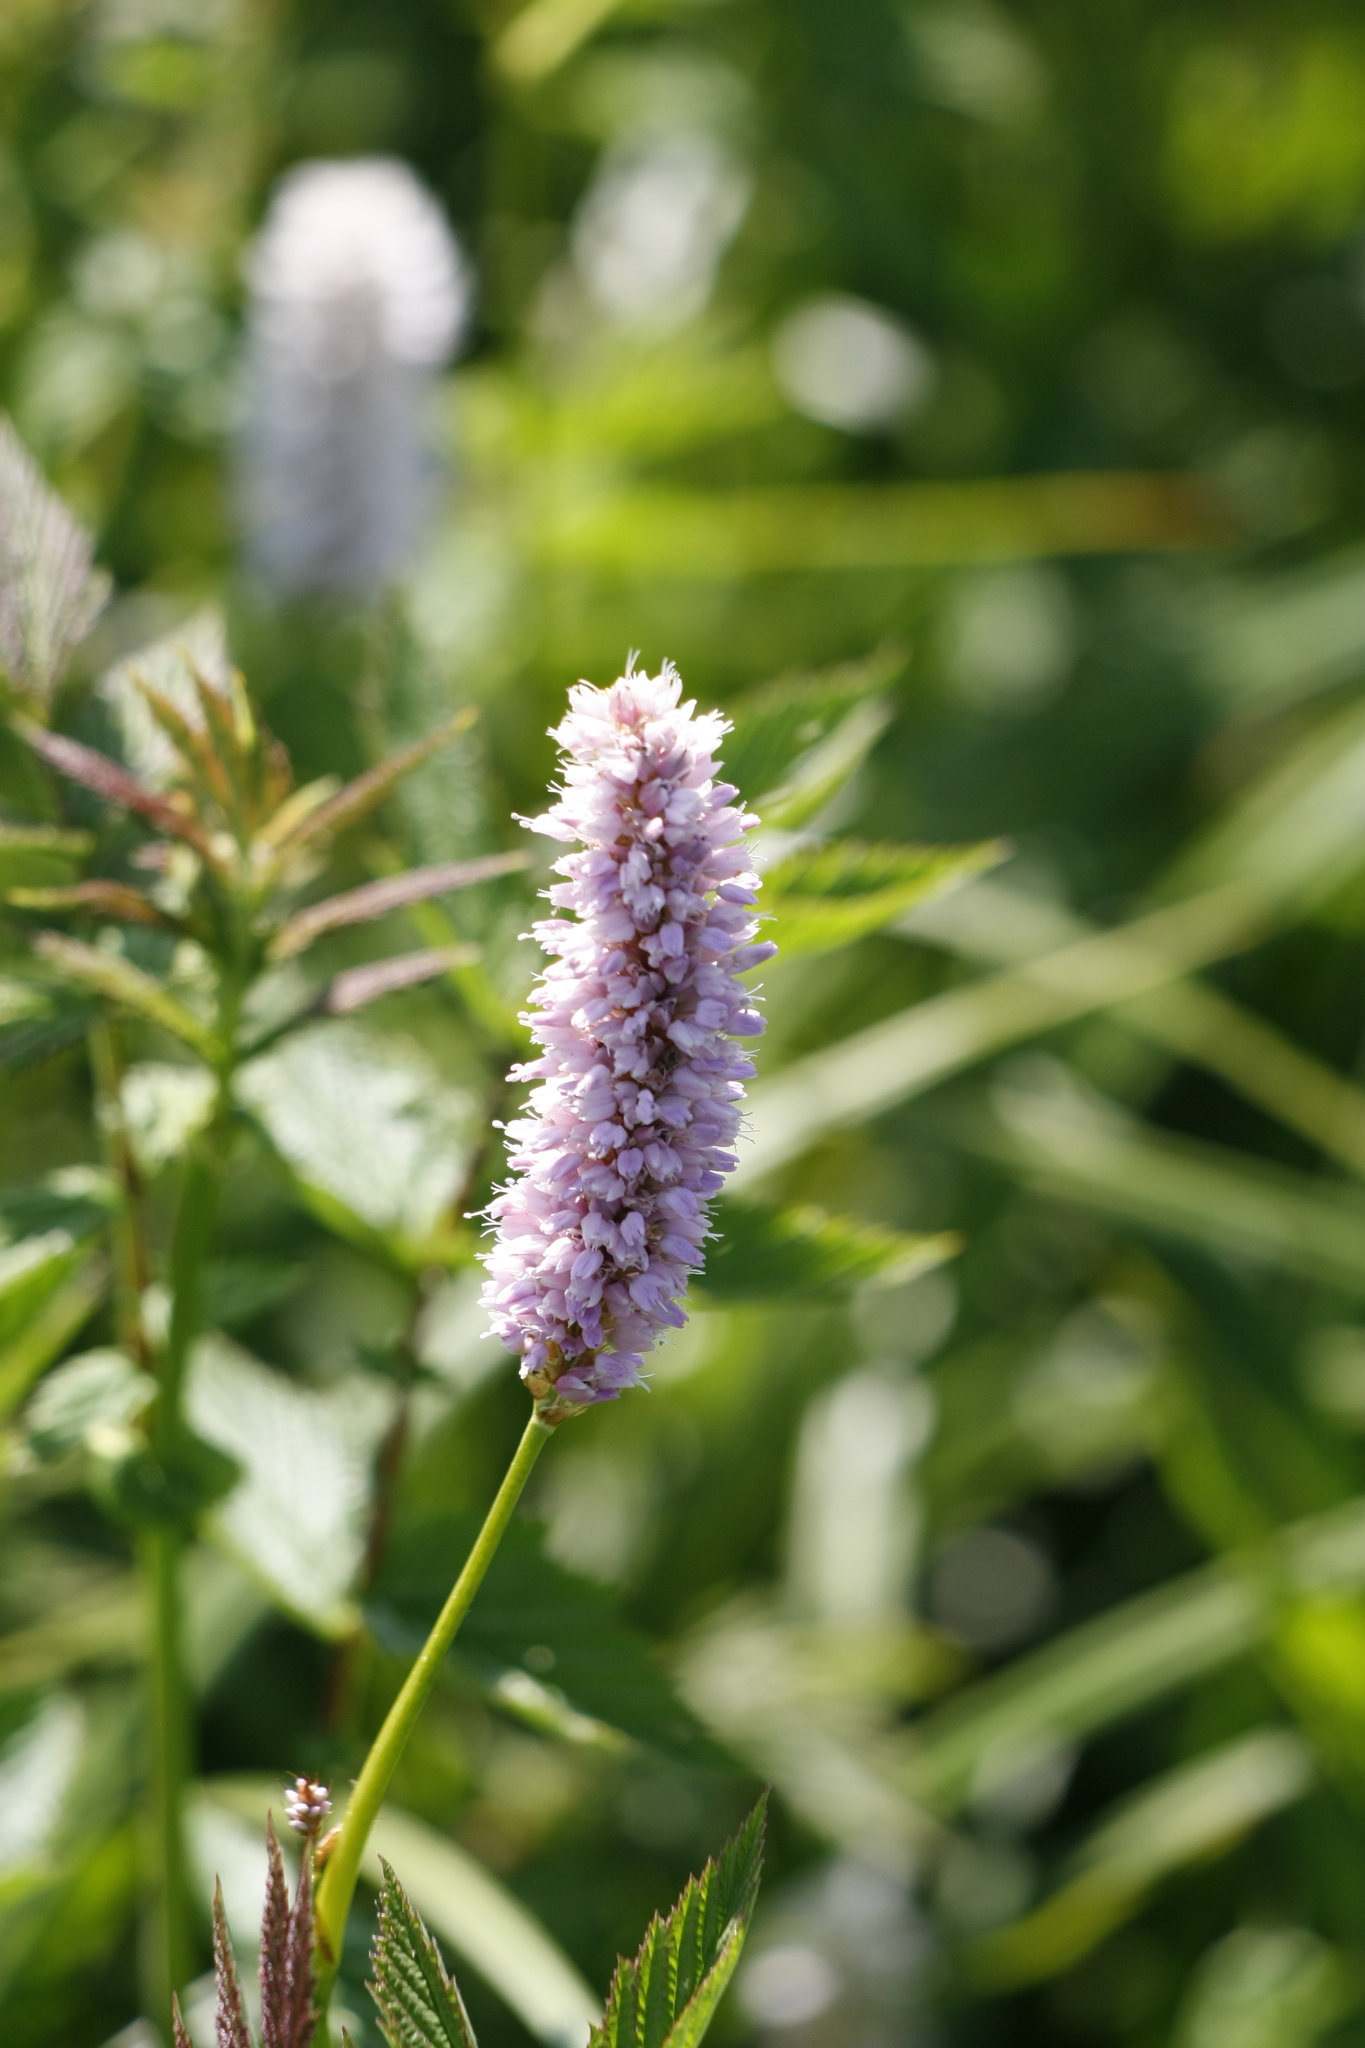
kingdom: Plantae
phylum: Tracheophyta
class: Magnoliopsida
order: Caryophyllales
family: Polygonaceae
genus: Bistorta
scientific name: Bistorta officinalis
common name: Common bistort
